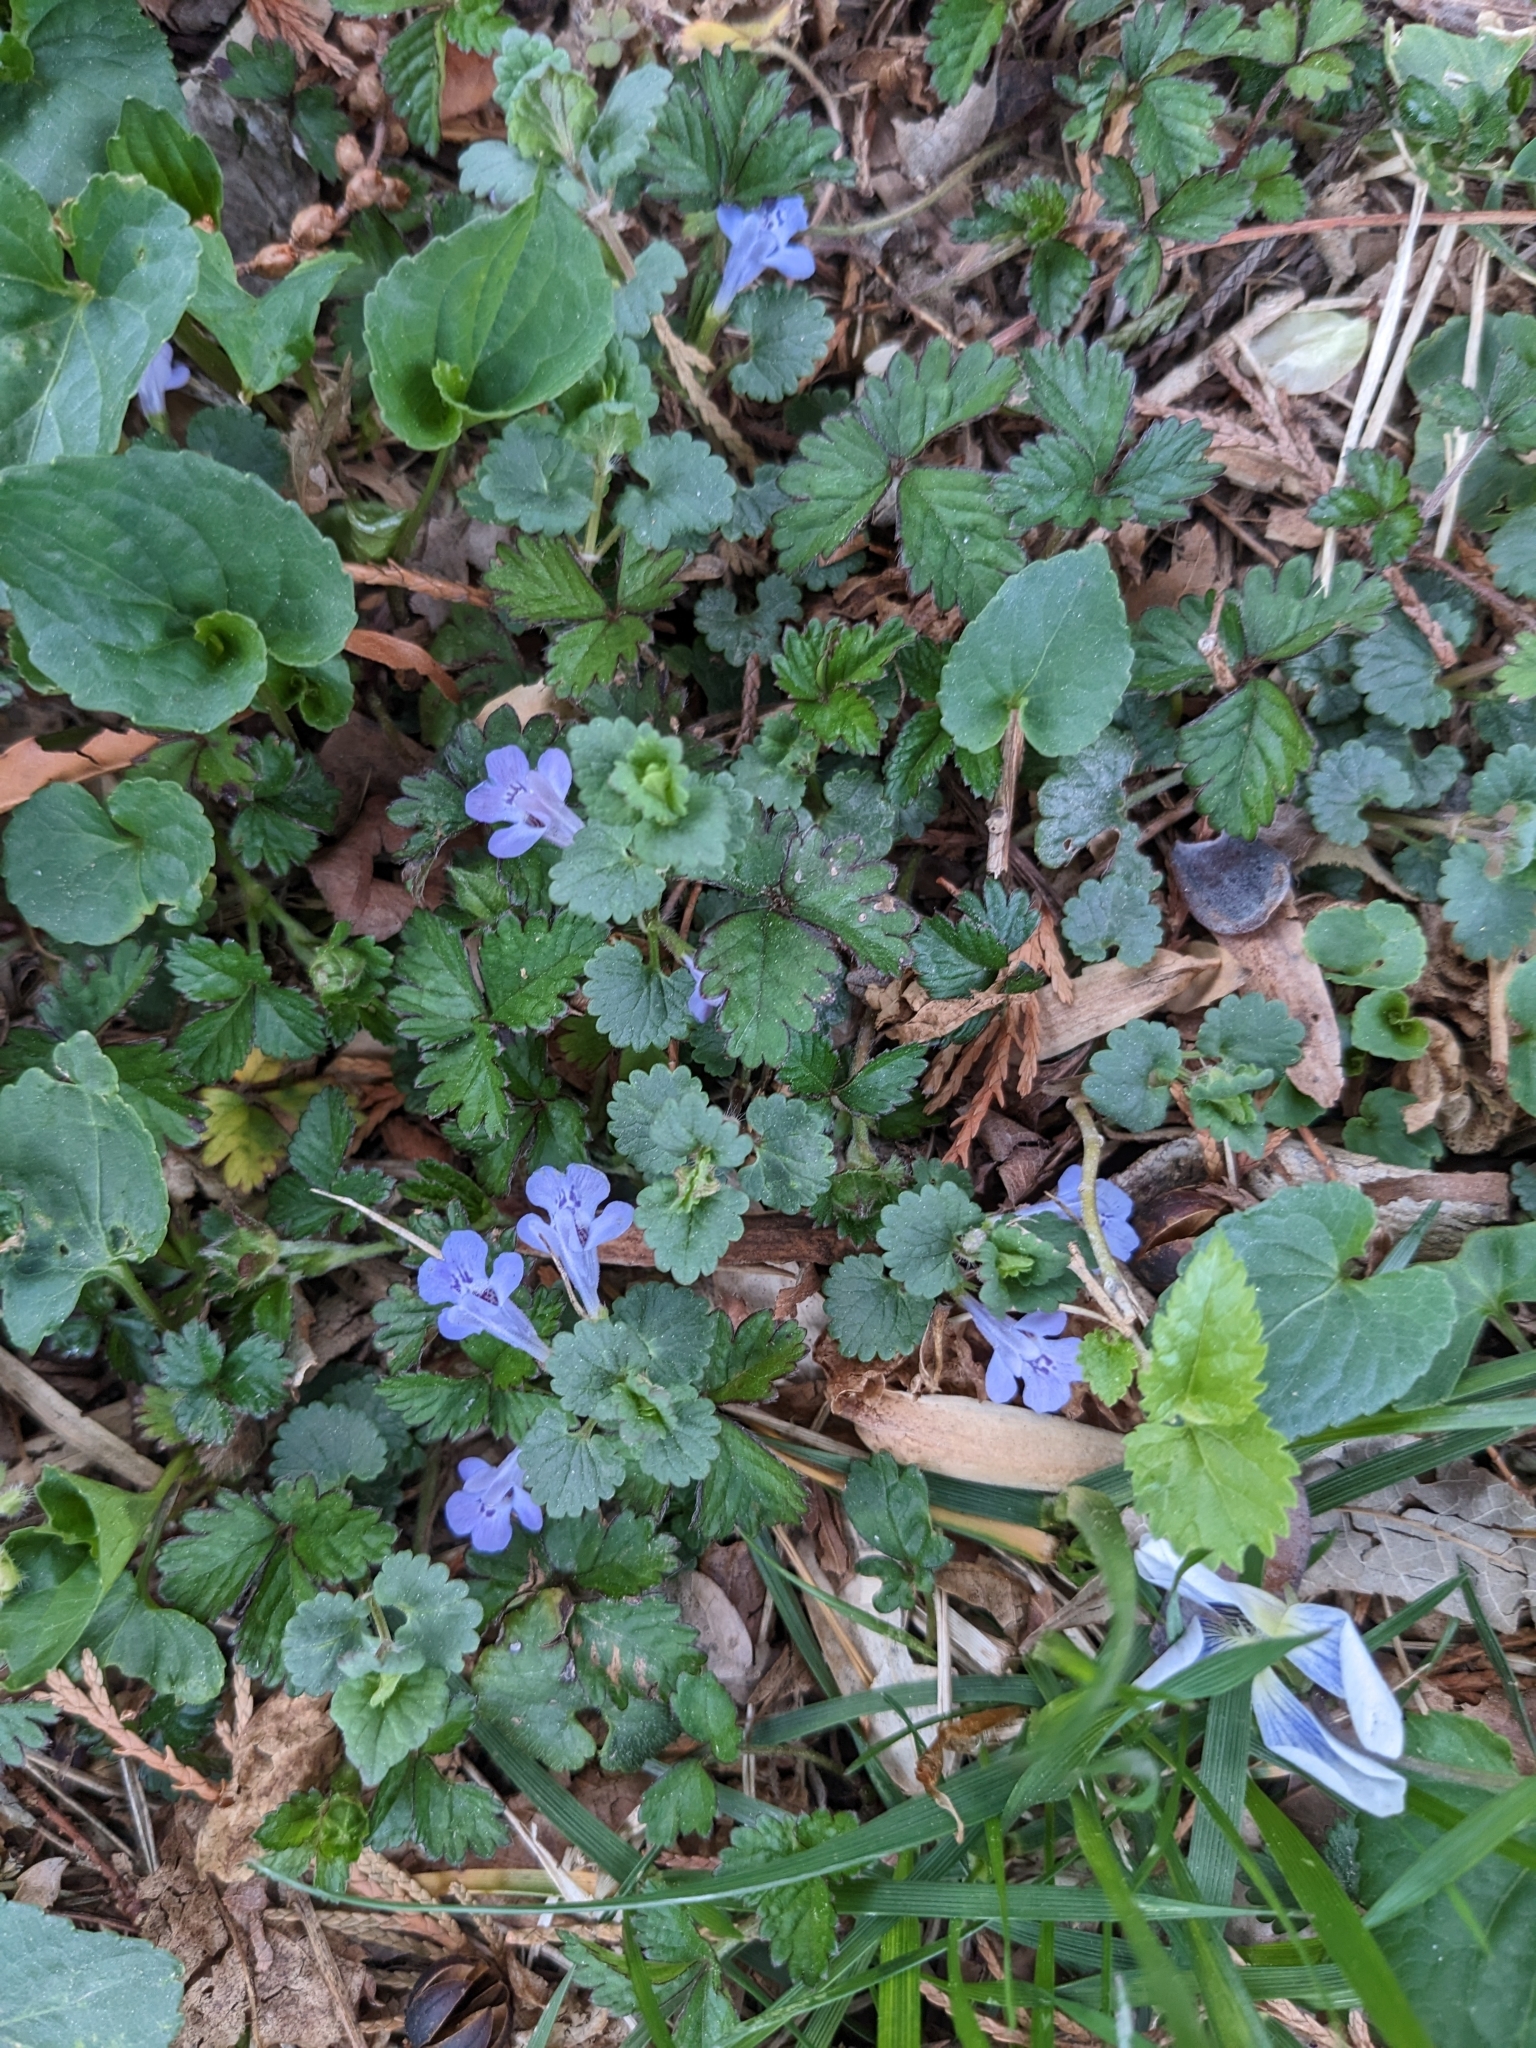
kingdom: Plantae
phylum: Tracheophyta
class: Magnoliopsida
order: Lamiales
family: Lamiaceae
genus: Glechoma
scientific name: Glechoma hederacea
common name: Ground ivy
